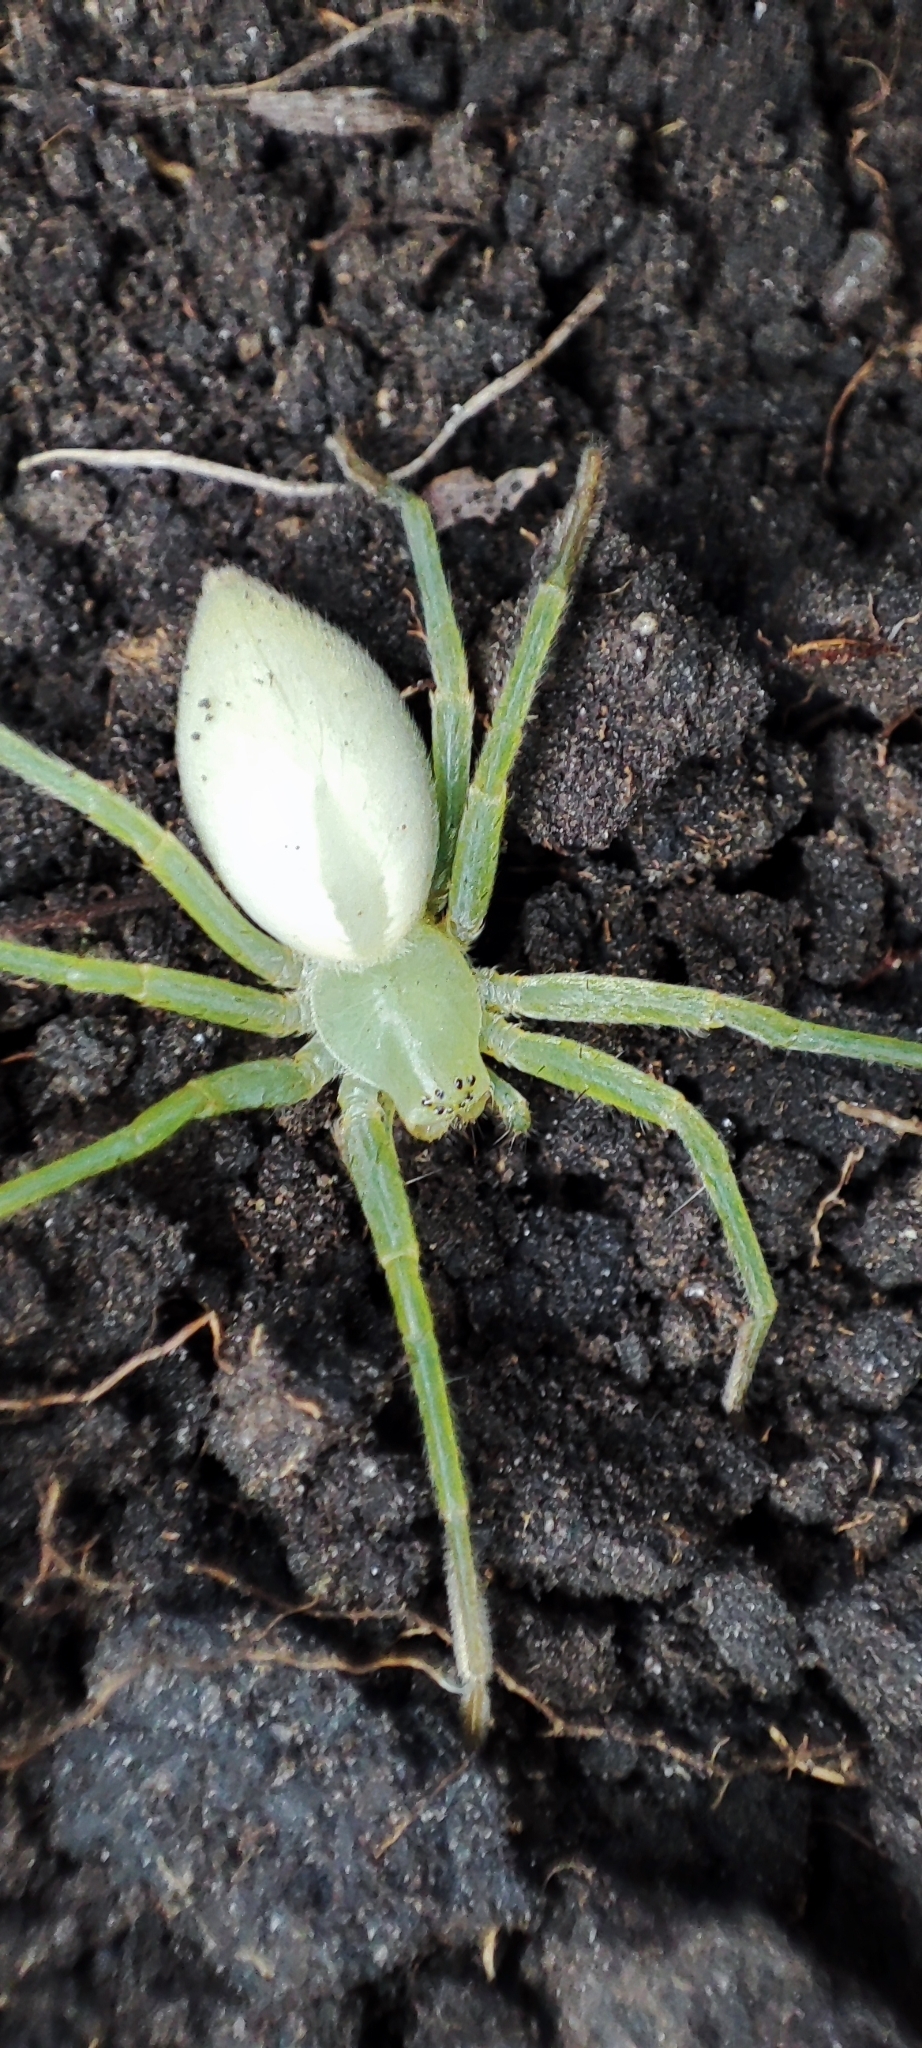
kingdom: Animalia
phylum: Arthropoda
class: Arachnida
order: Araneae
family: Sparassidae
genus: Micrommata
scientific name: Micrommata virescens
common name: Green spider
